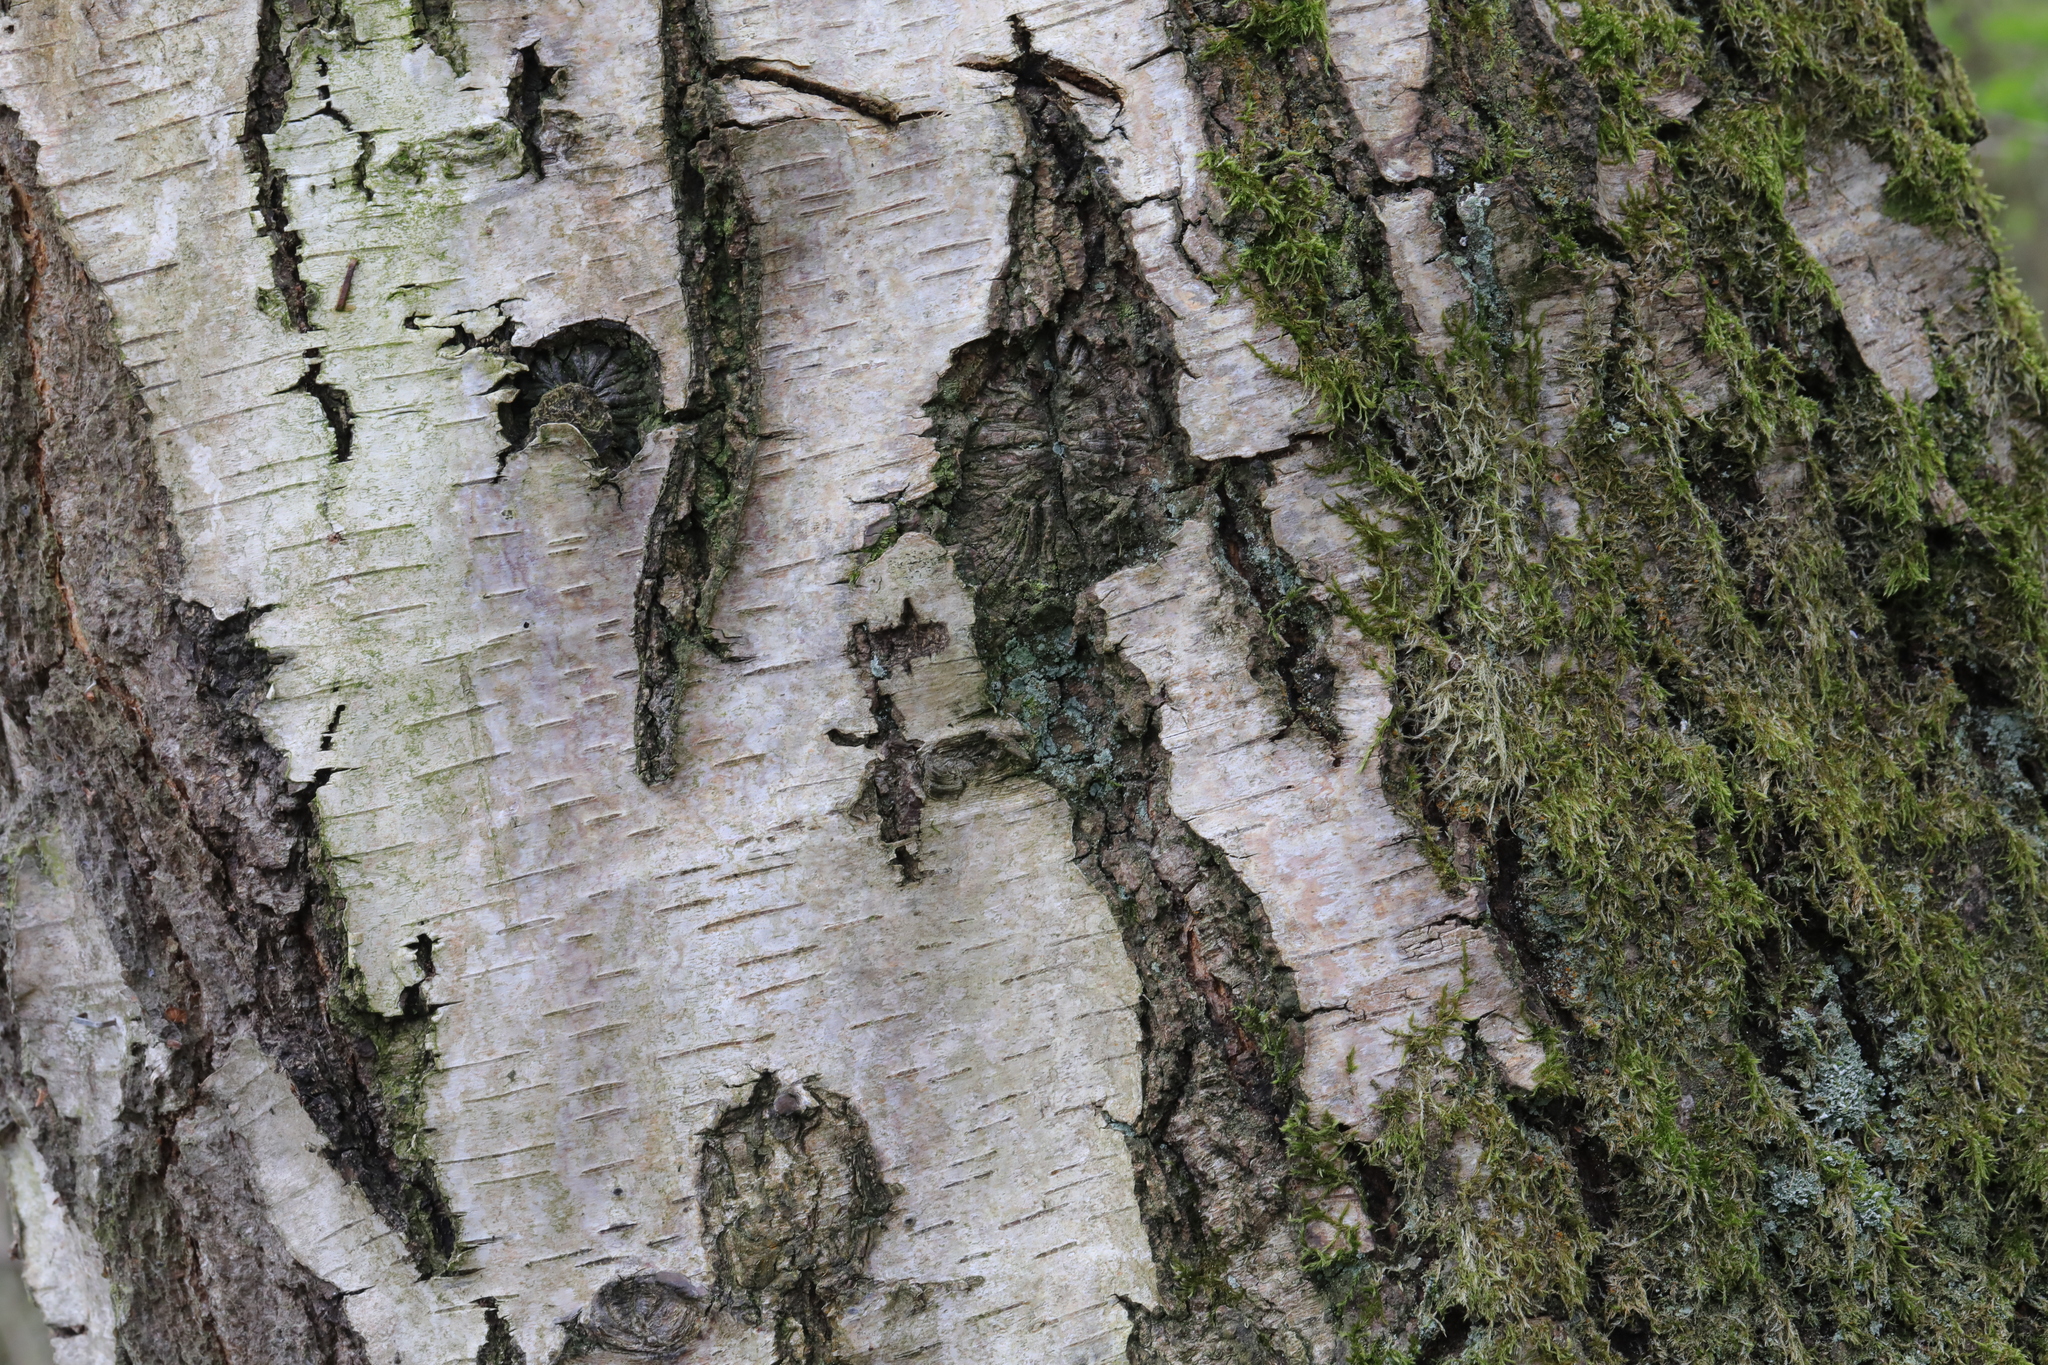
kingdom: Plantae
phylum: Tracheophyta
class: Magnoliopsida
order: Fagales
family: Betulaceae
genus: Betula
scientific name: Betula pendula
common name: Silver birch
